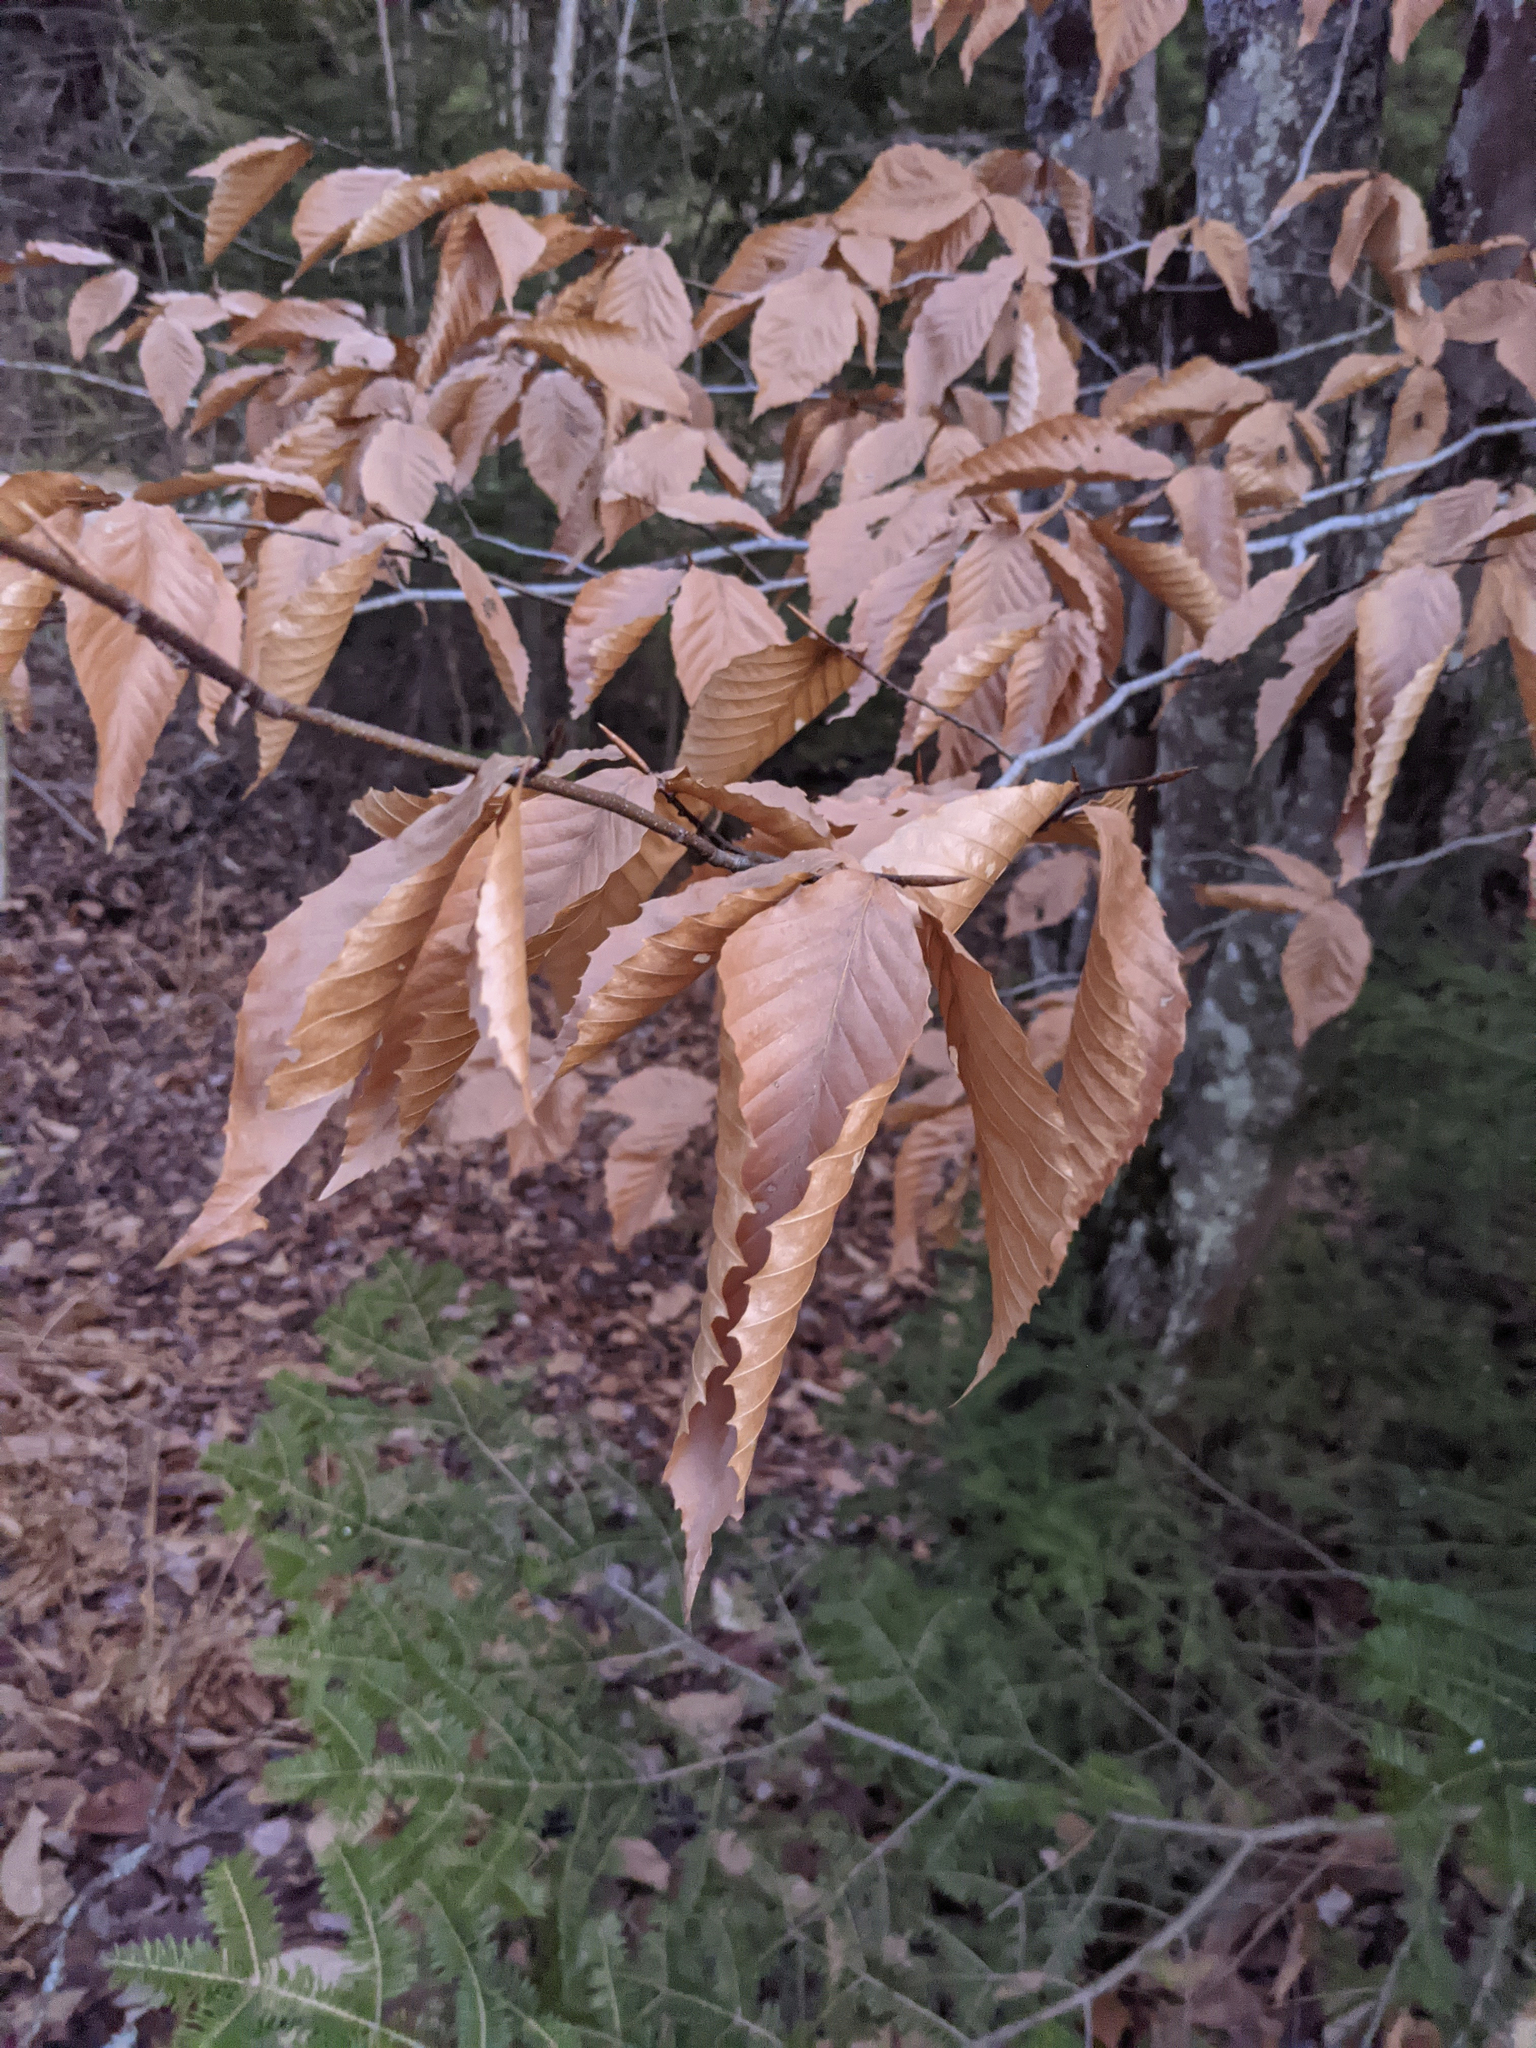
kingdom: Plantae
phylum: Tracheophyta
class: Magnoliopsida
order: Fagales
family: Fagaceae
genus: Fagus
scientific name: Fagus grandifolia
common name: American beech
